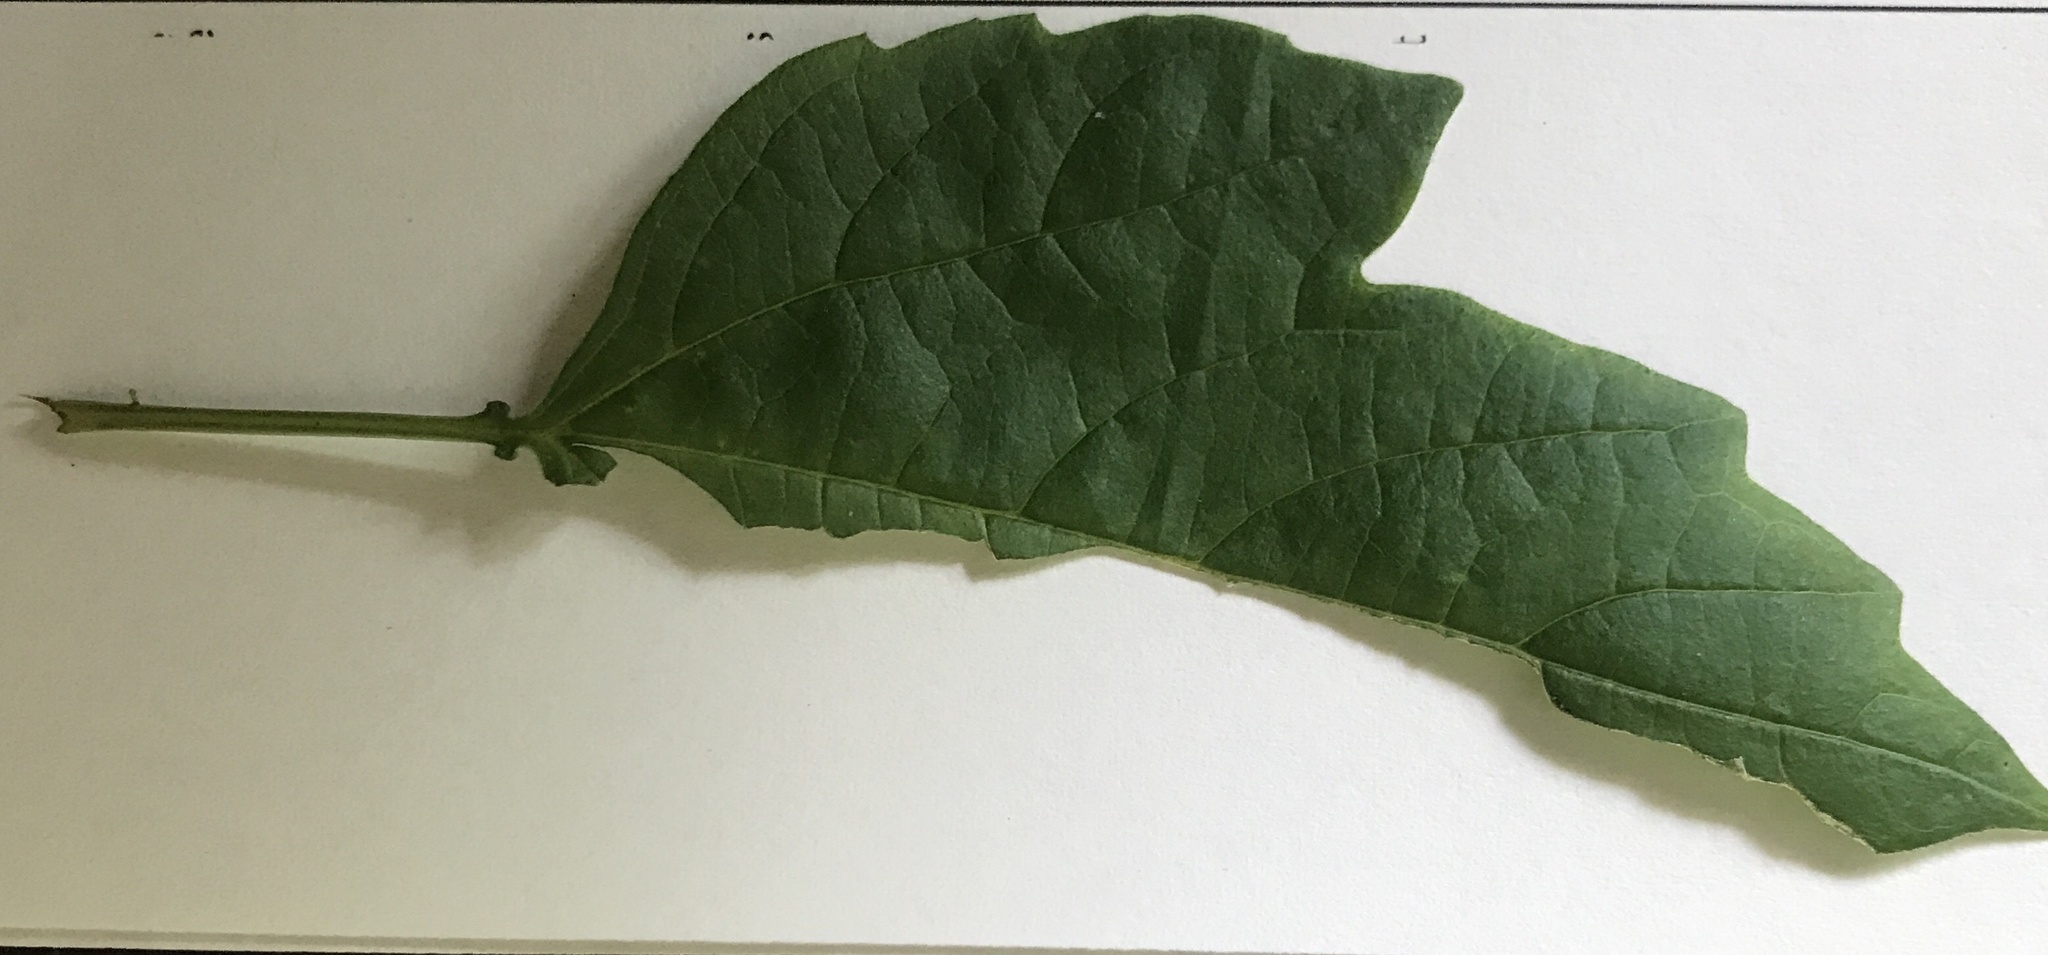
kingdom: Plantae
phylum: Tracheophyta
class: Magnoliopsida
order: Dipsacales
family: Viburnaceae
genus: Viburnum
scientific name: Viburnum opulus
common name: Guelder-rose
